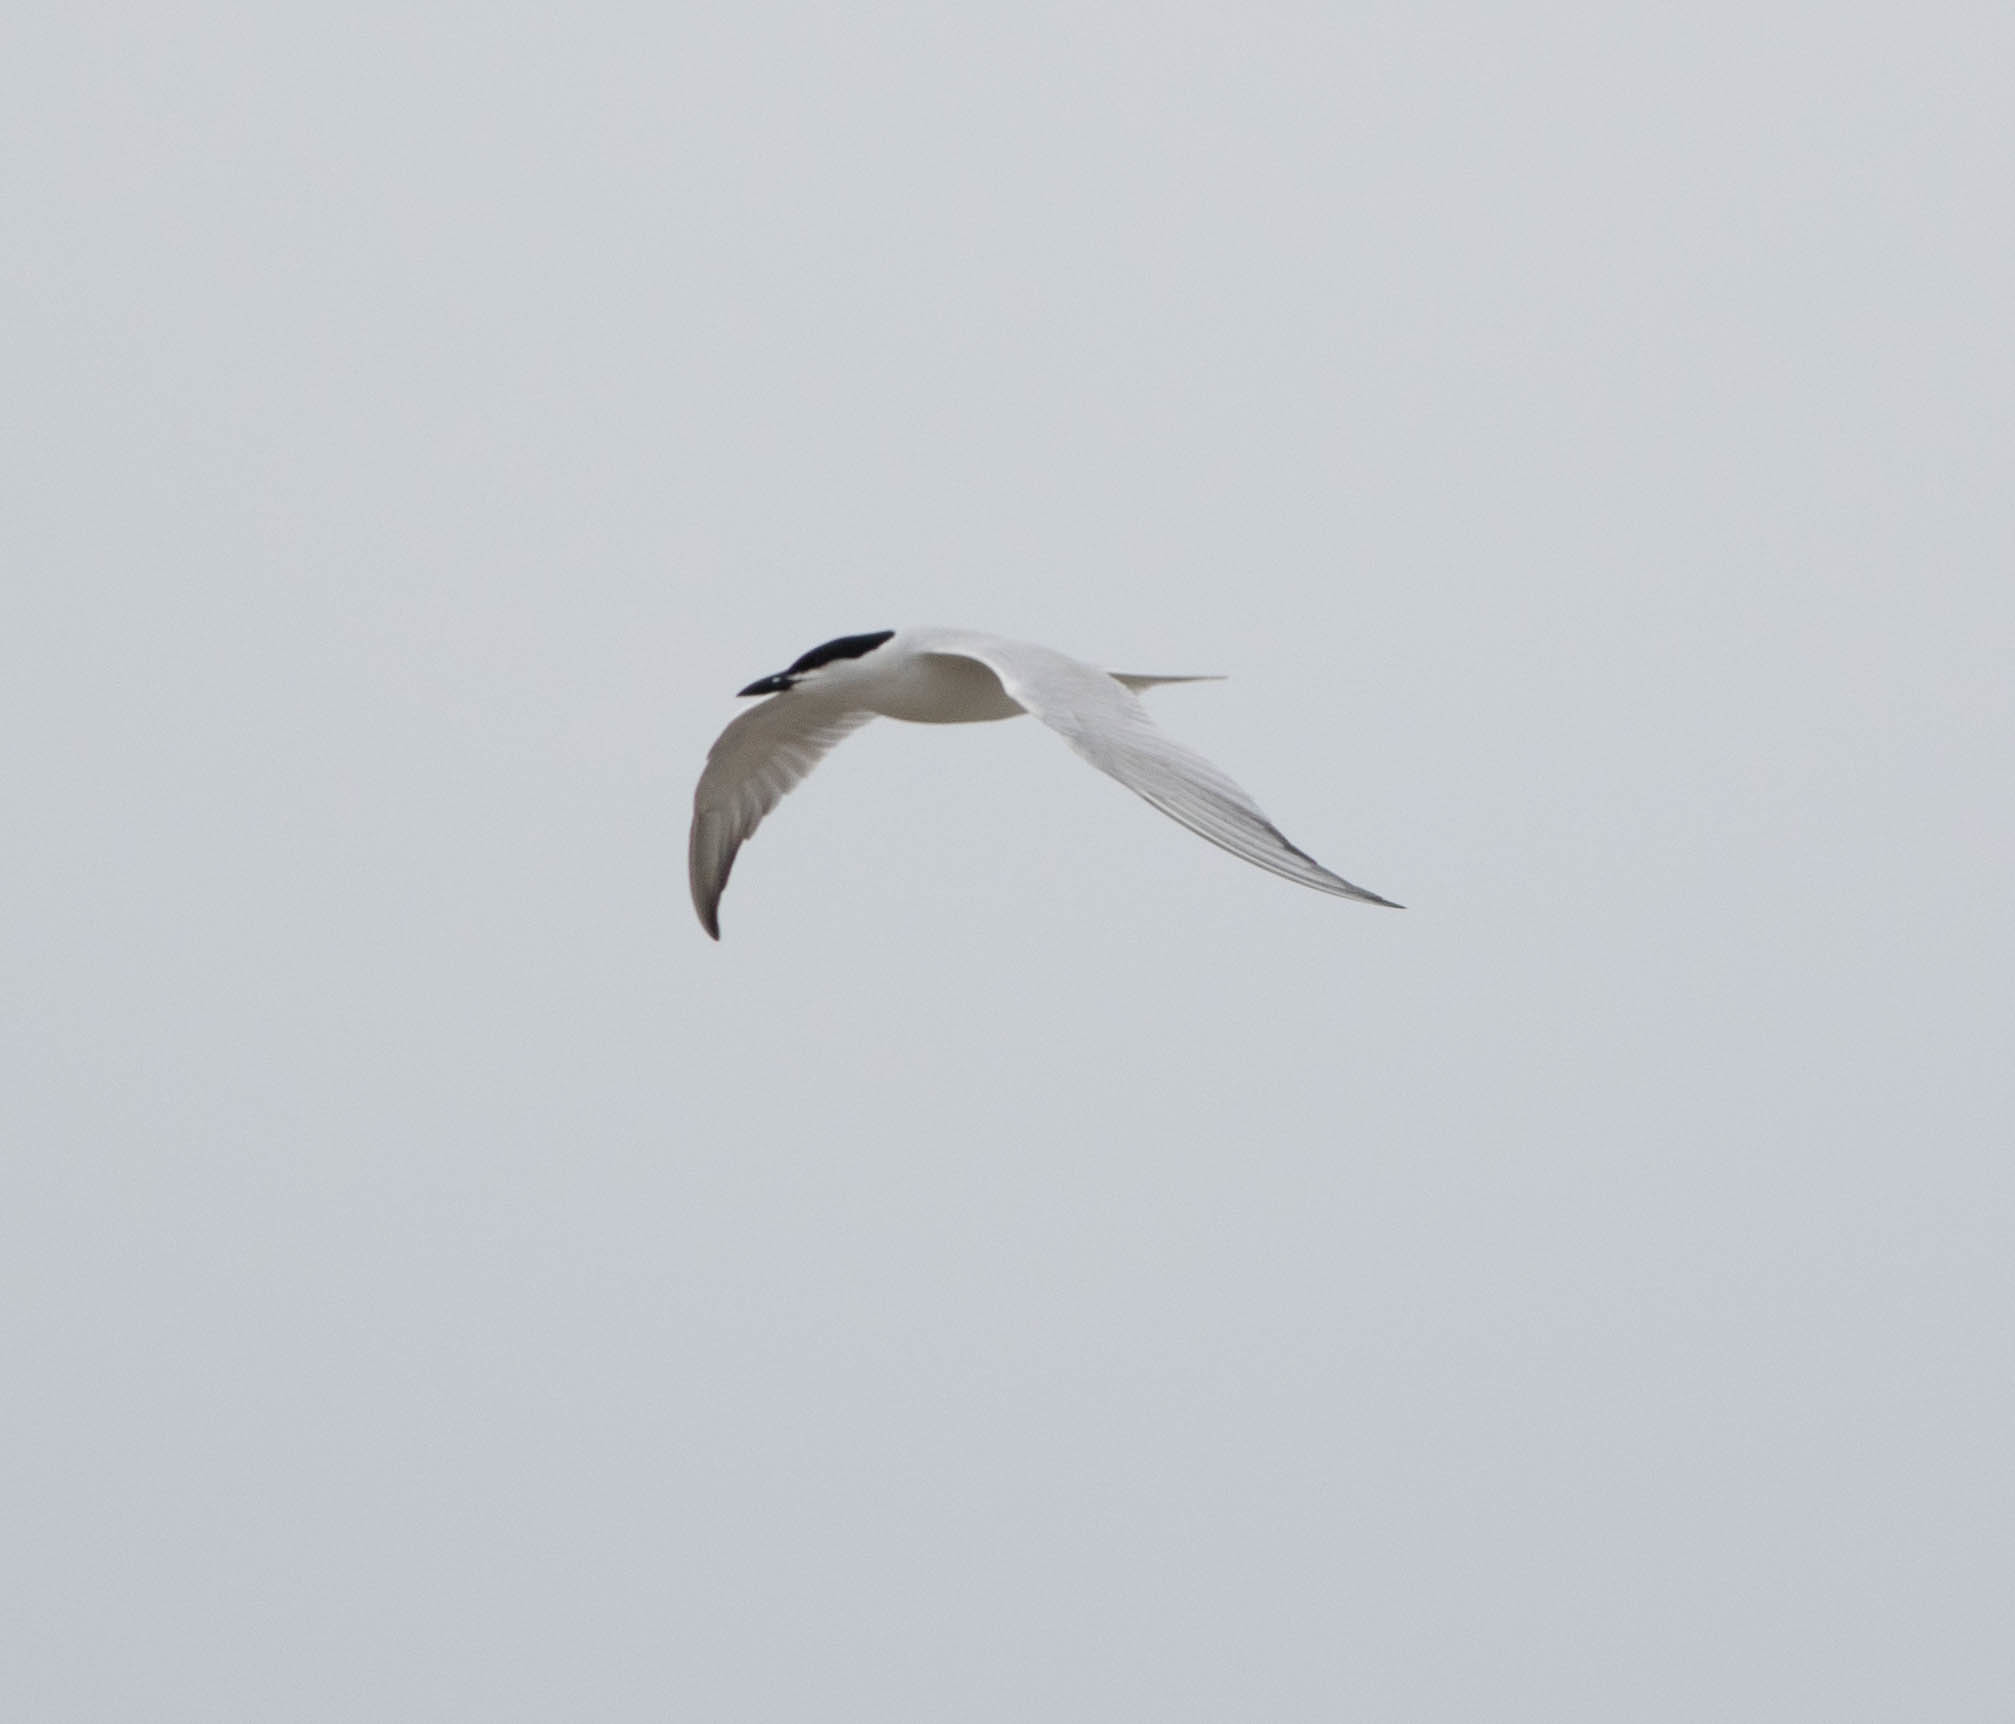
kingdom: Animalia
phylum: Chordata
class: Aves
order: Charadriiformes
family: Laridae
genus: Gelochelidon
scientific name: Gelochelidon nilotica
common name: Gull-billed tern
